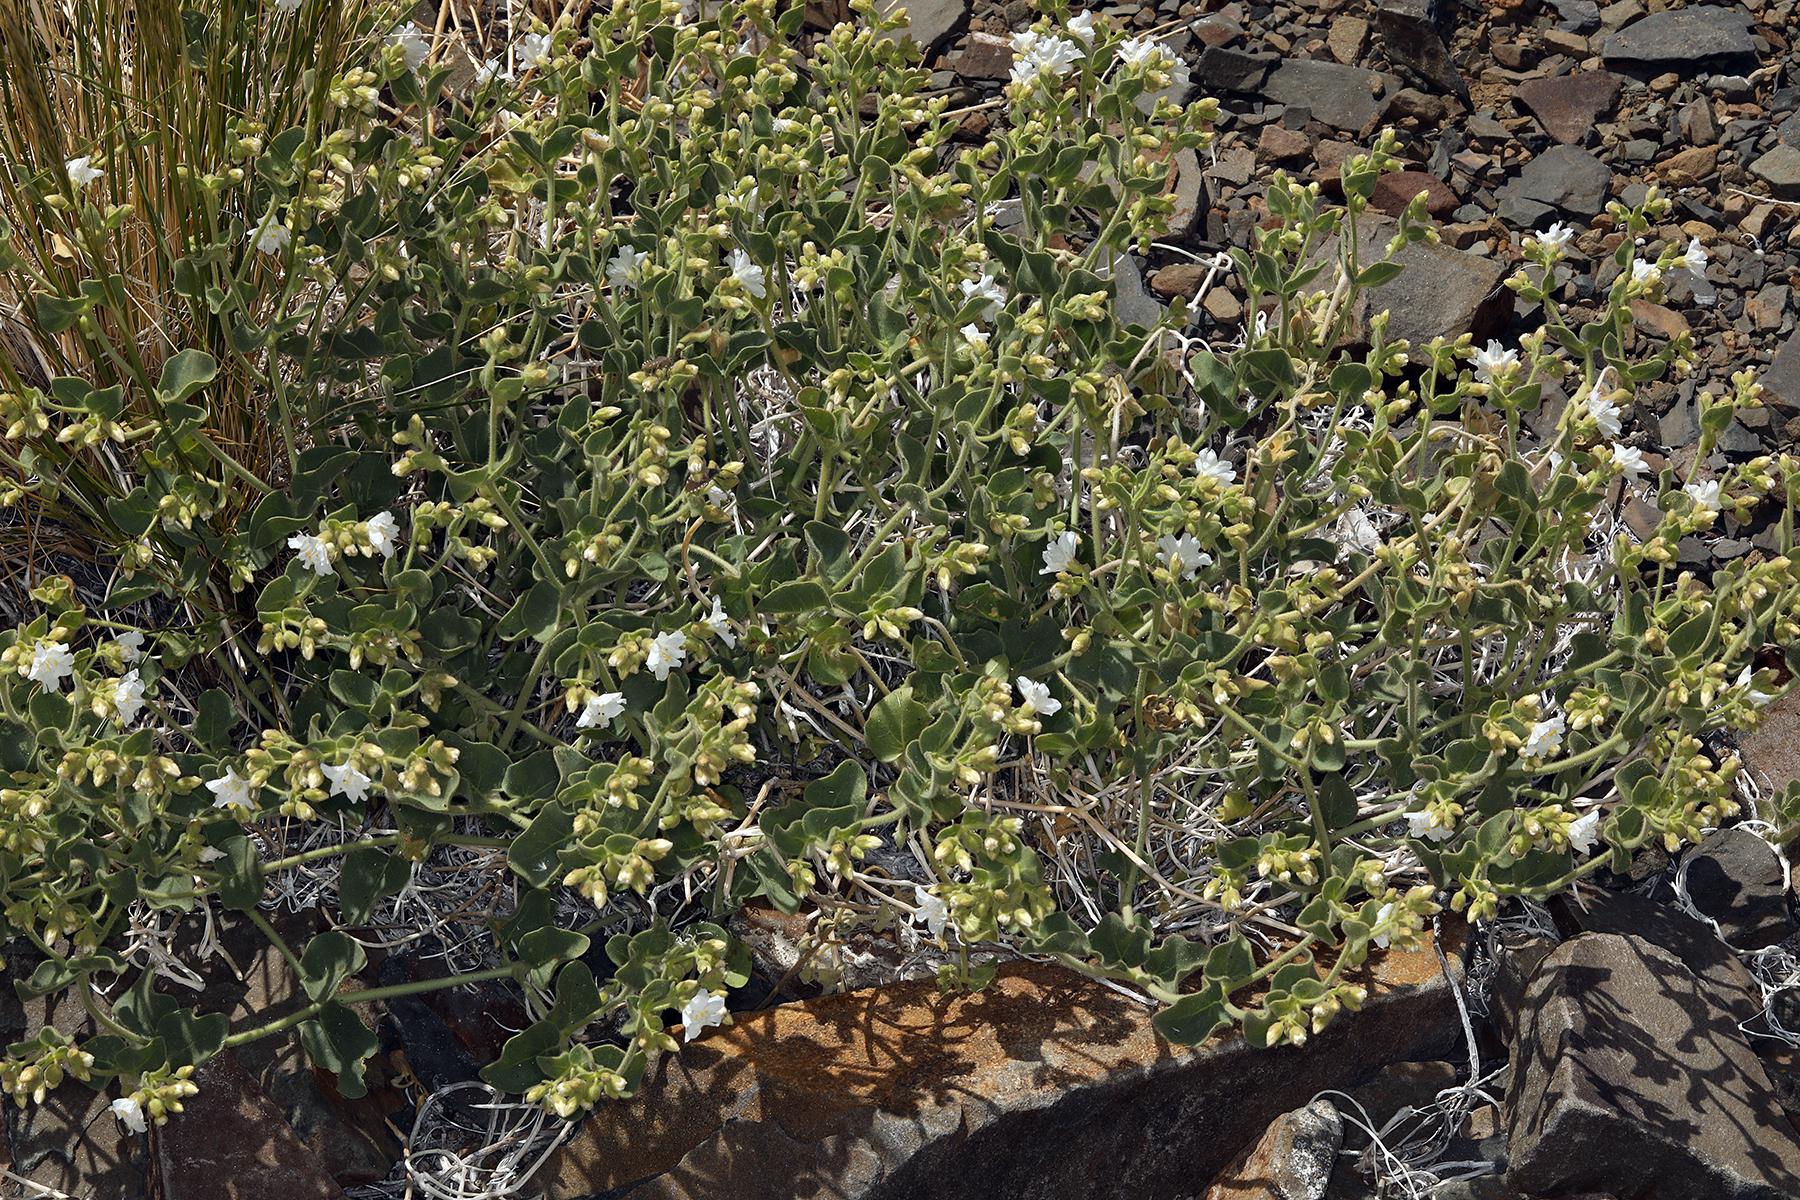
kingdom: Plantae
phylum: Tracheophyta
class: Magnoliopsida
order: Caryophyllales
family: Nyctaginaceae
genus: Mirabilis
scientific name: Mirabilis laevis
